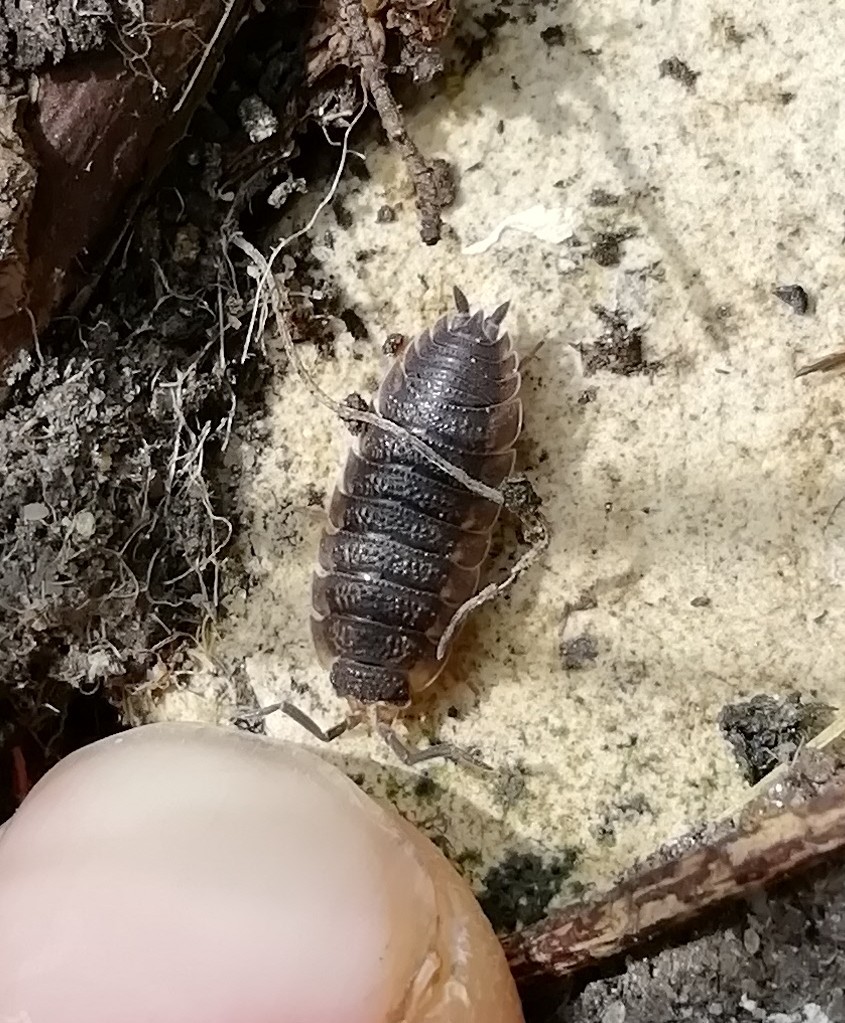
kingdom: Animalia
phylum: Arthropoda
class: Malacostraca
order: Isopoda
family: Porcellionidae
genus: Porcellio
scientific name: Porcellio scaber
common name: Common rough woodlouse
